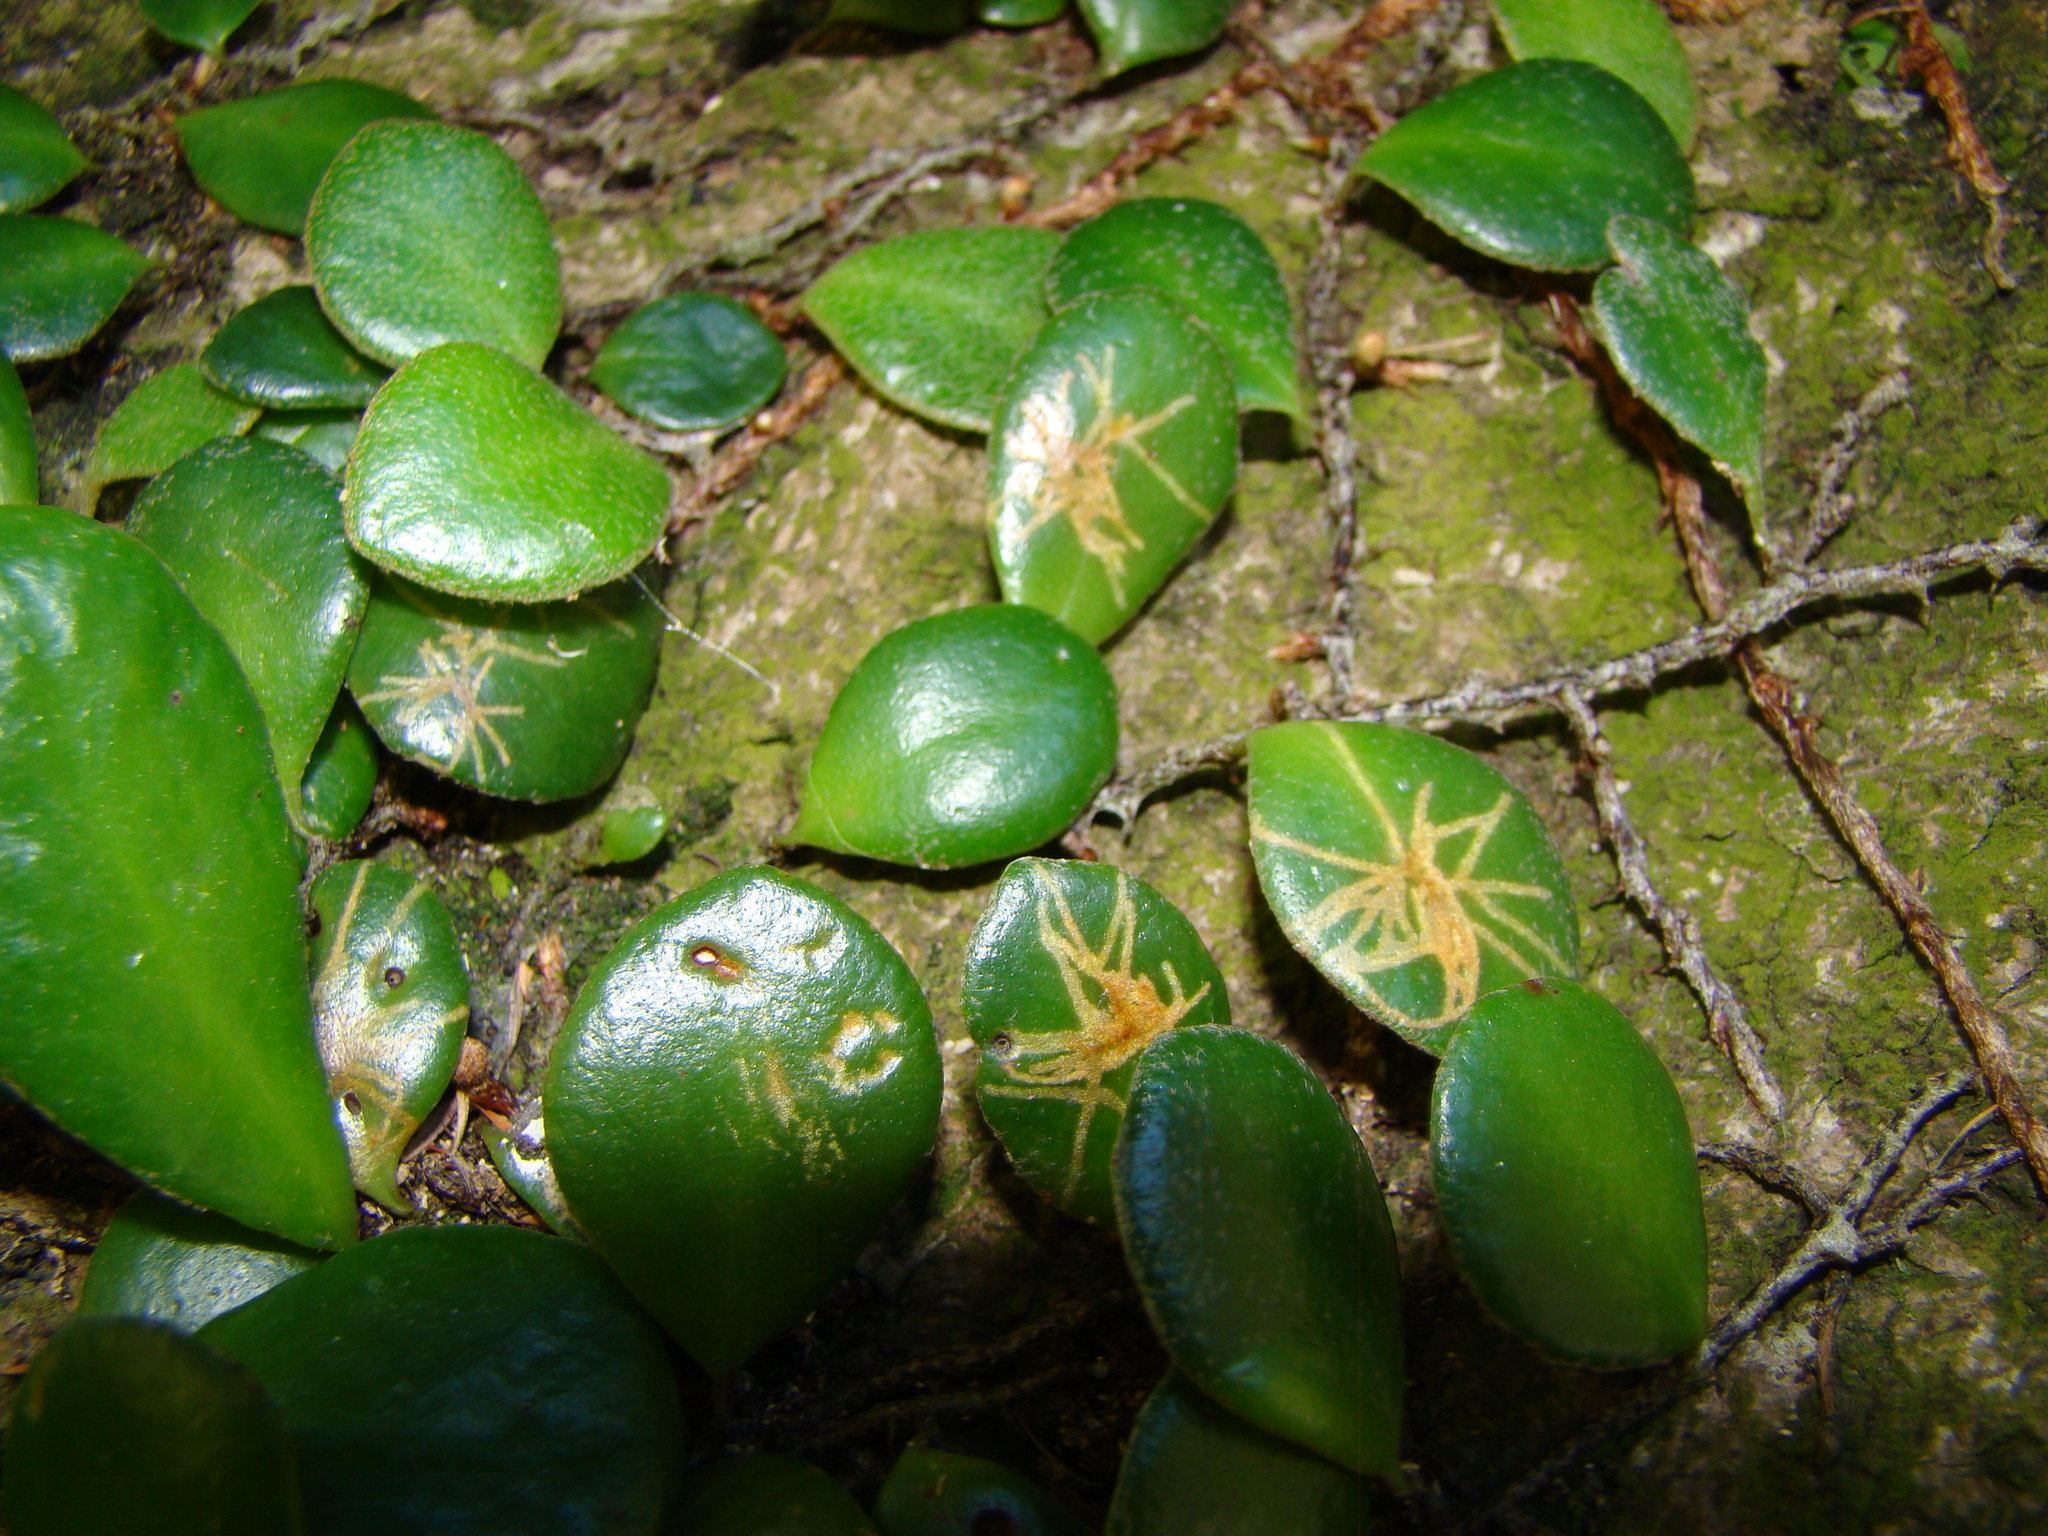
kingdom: Animalia
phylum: Arthropoda
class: Insecta
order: Lepidoptera
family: Tortricidae
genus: Philocryptica
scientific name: Philocryptica polypodii
